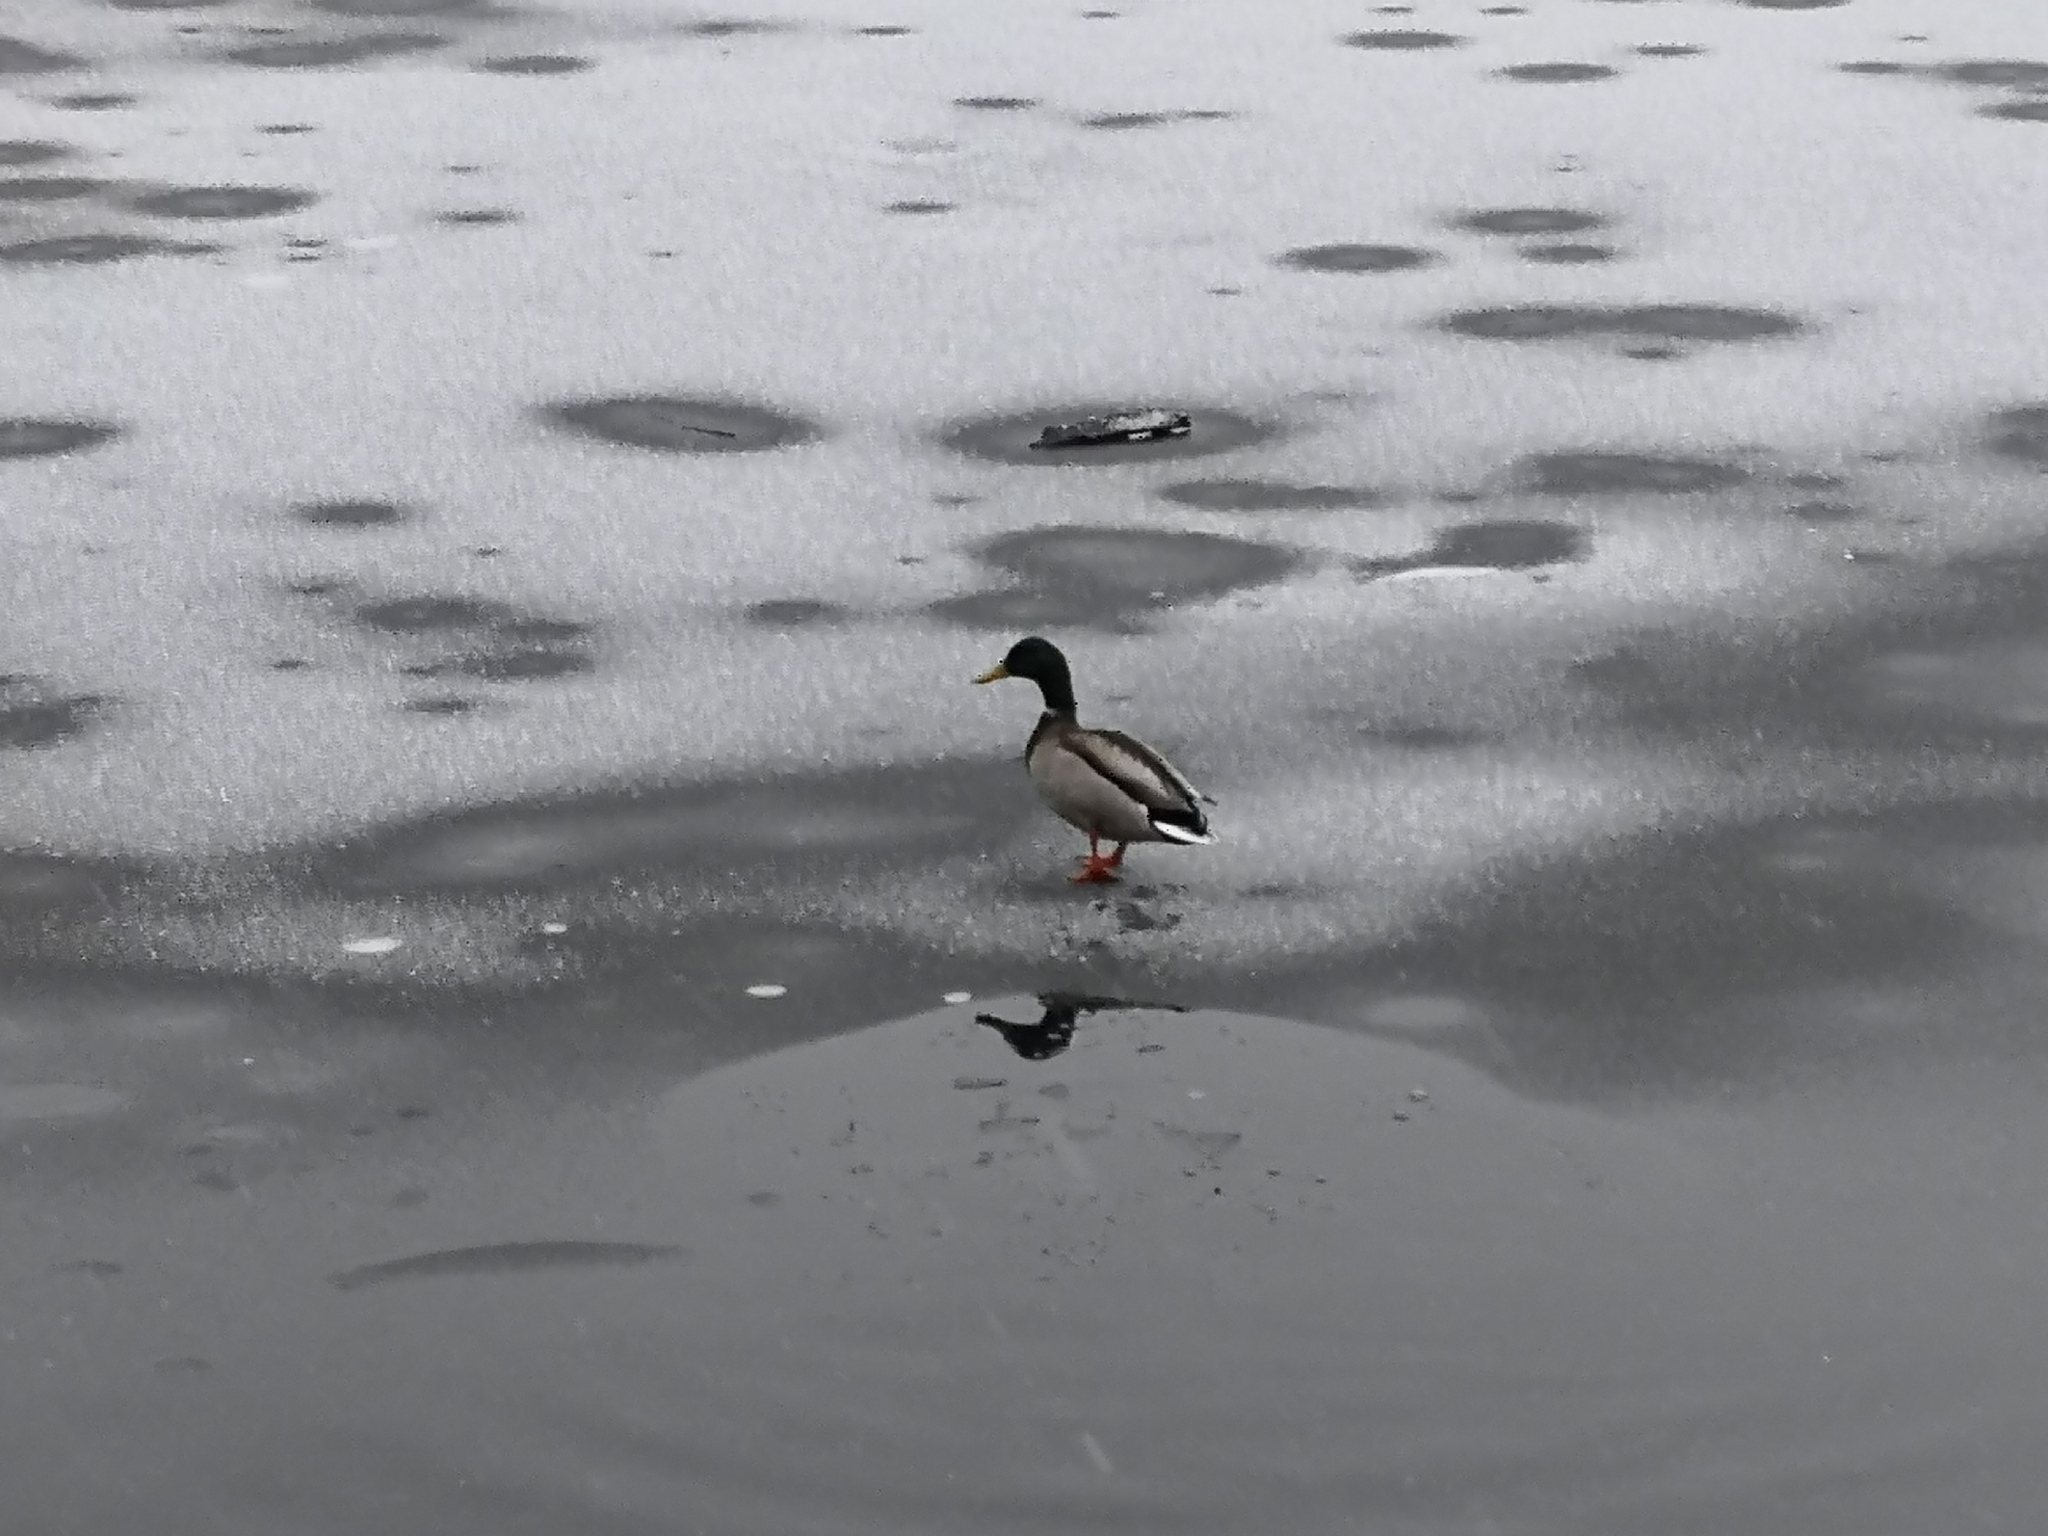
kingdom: Animalia
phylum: Chordata
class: Aves
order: Anseriformes
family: Anatidae
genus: Anas
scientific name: Anas platyrhynchos
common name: Mallard
